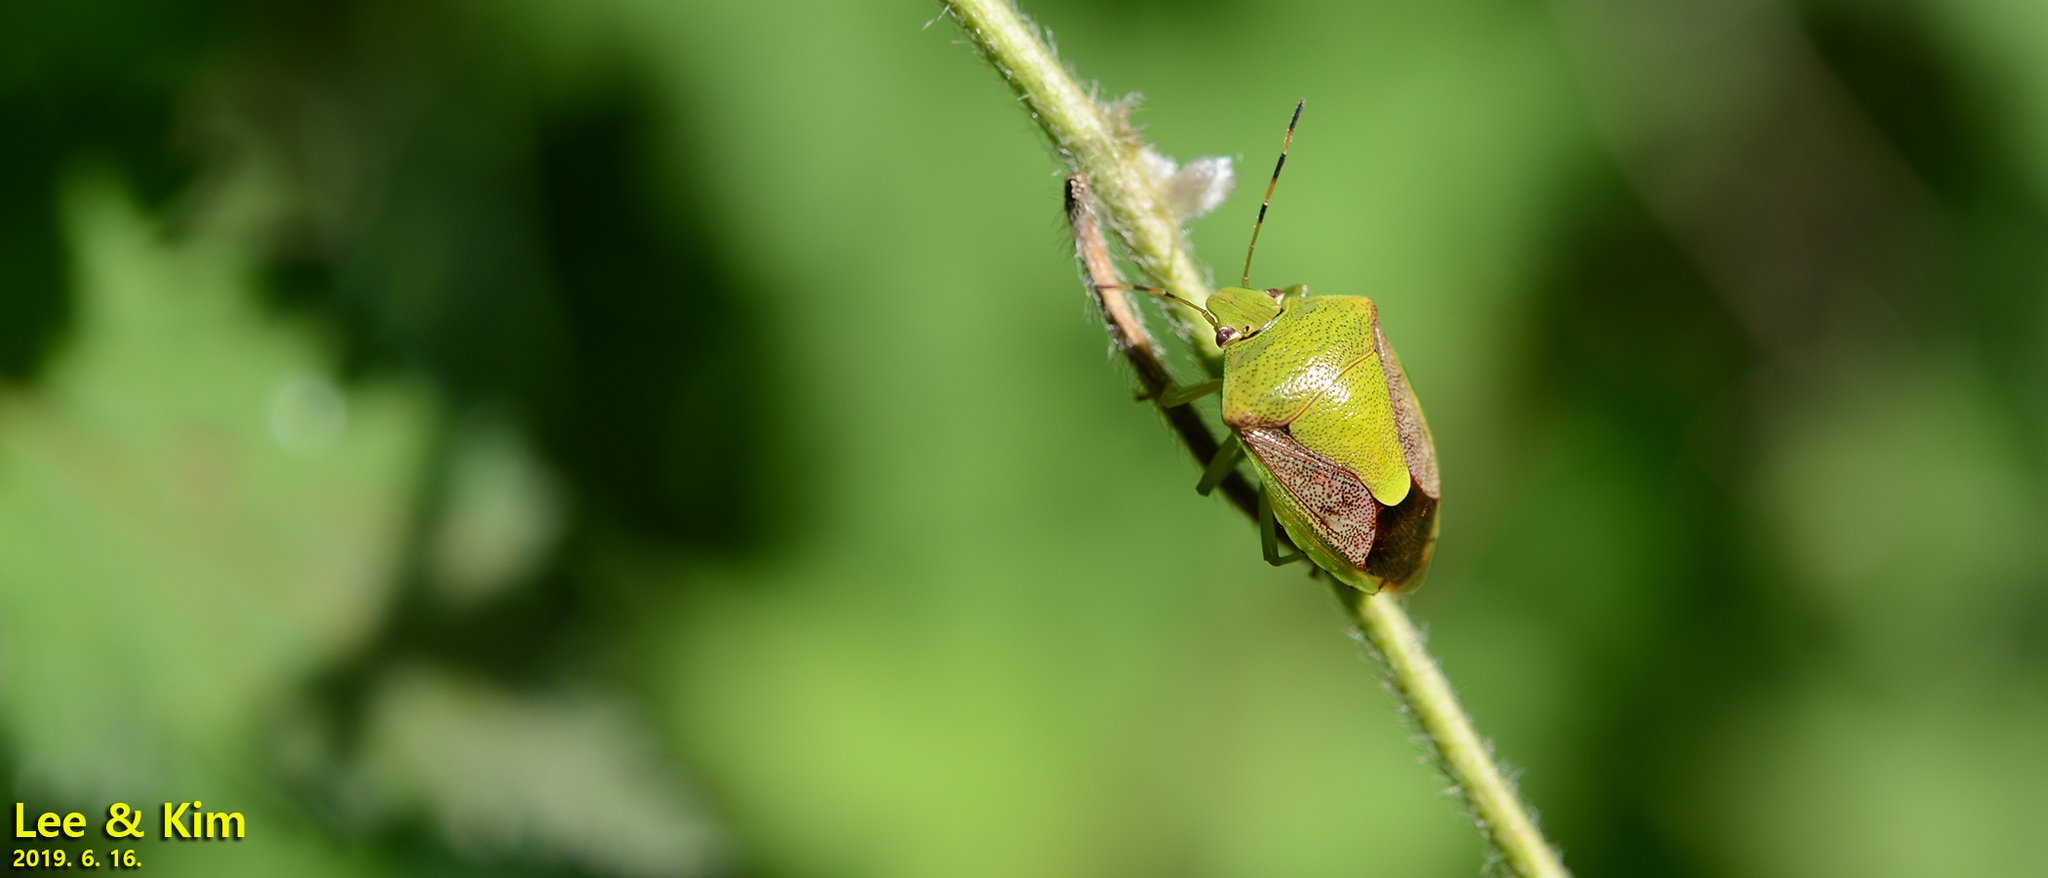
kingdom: Animalia
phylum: Arthropoda
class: Insecta
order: Hemiptera
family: Pentatomidae
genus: Plautia
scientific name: Plautia stali
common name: Stink bug
